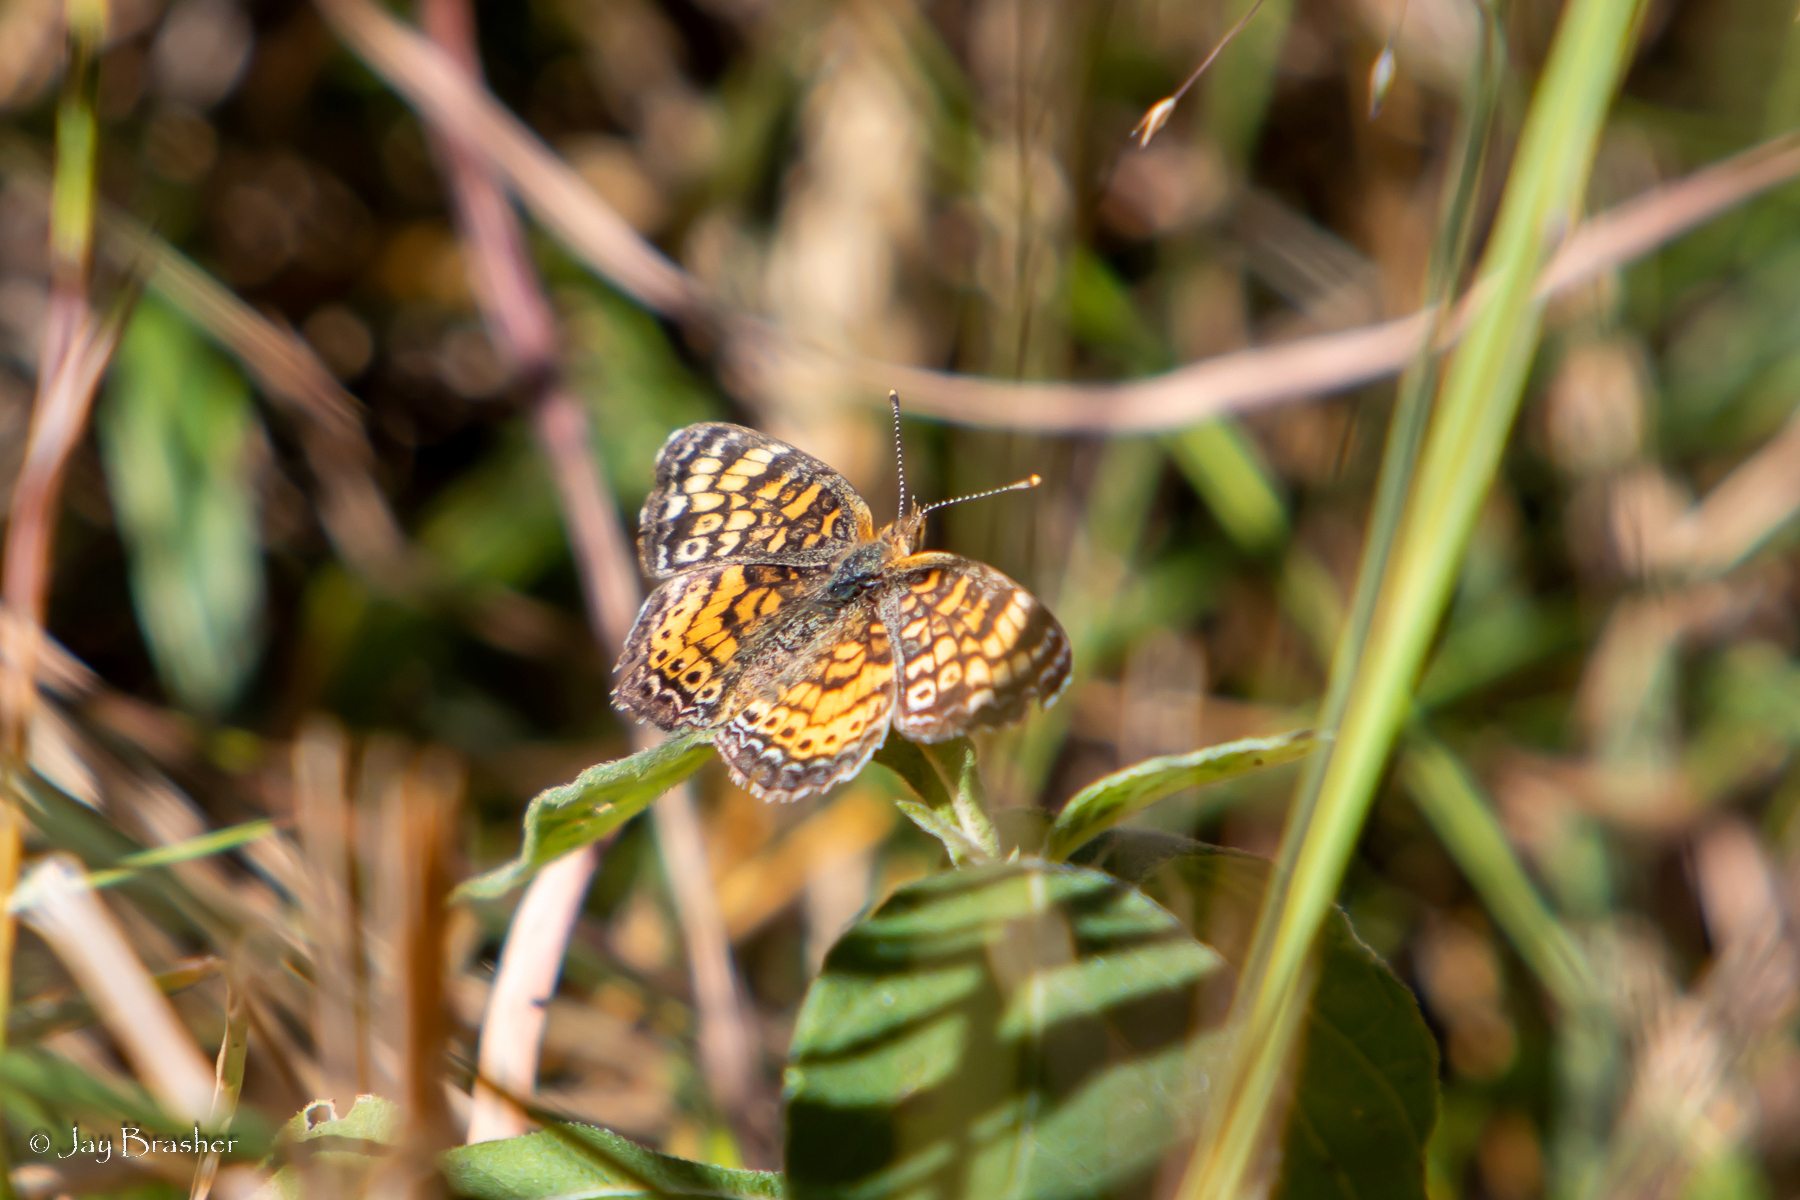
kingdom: Animalia
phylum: Arthropoda
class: Insecta
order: Lepidoptera
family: Nymphalidae
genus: Phyciodes
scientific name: Phyciodes tharos
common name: Pearl crescent
